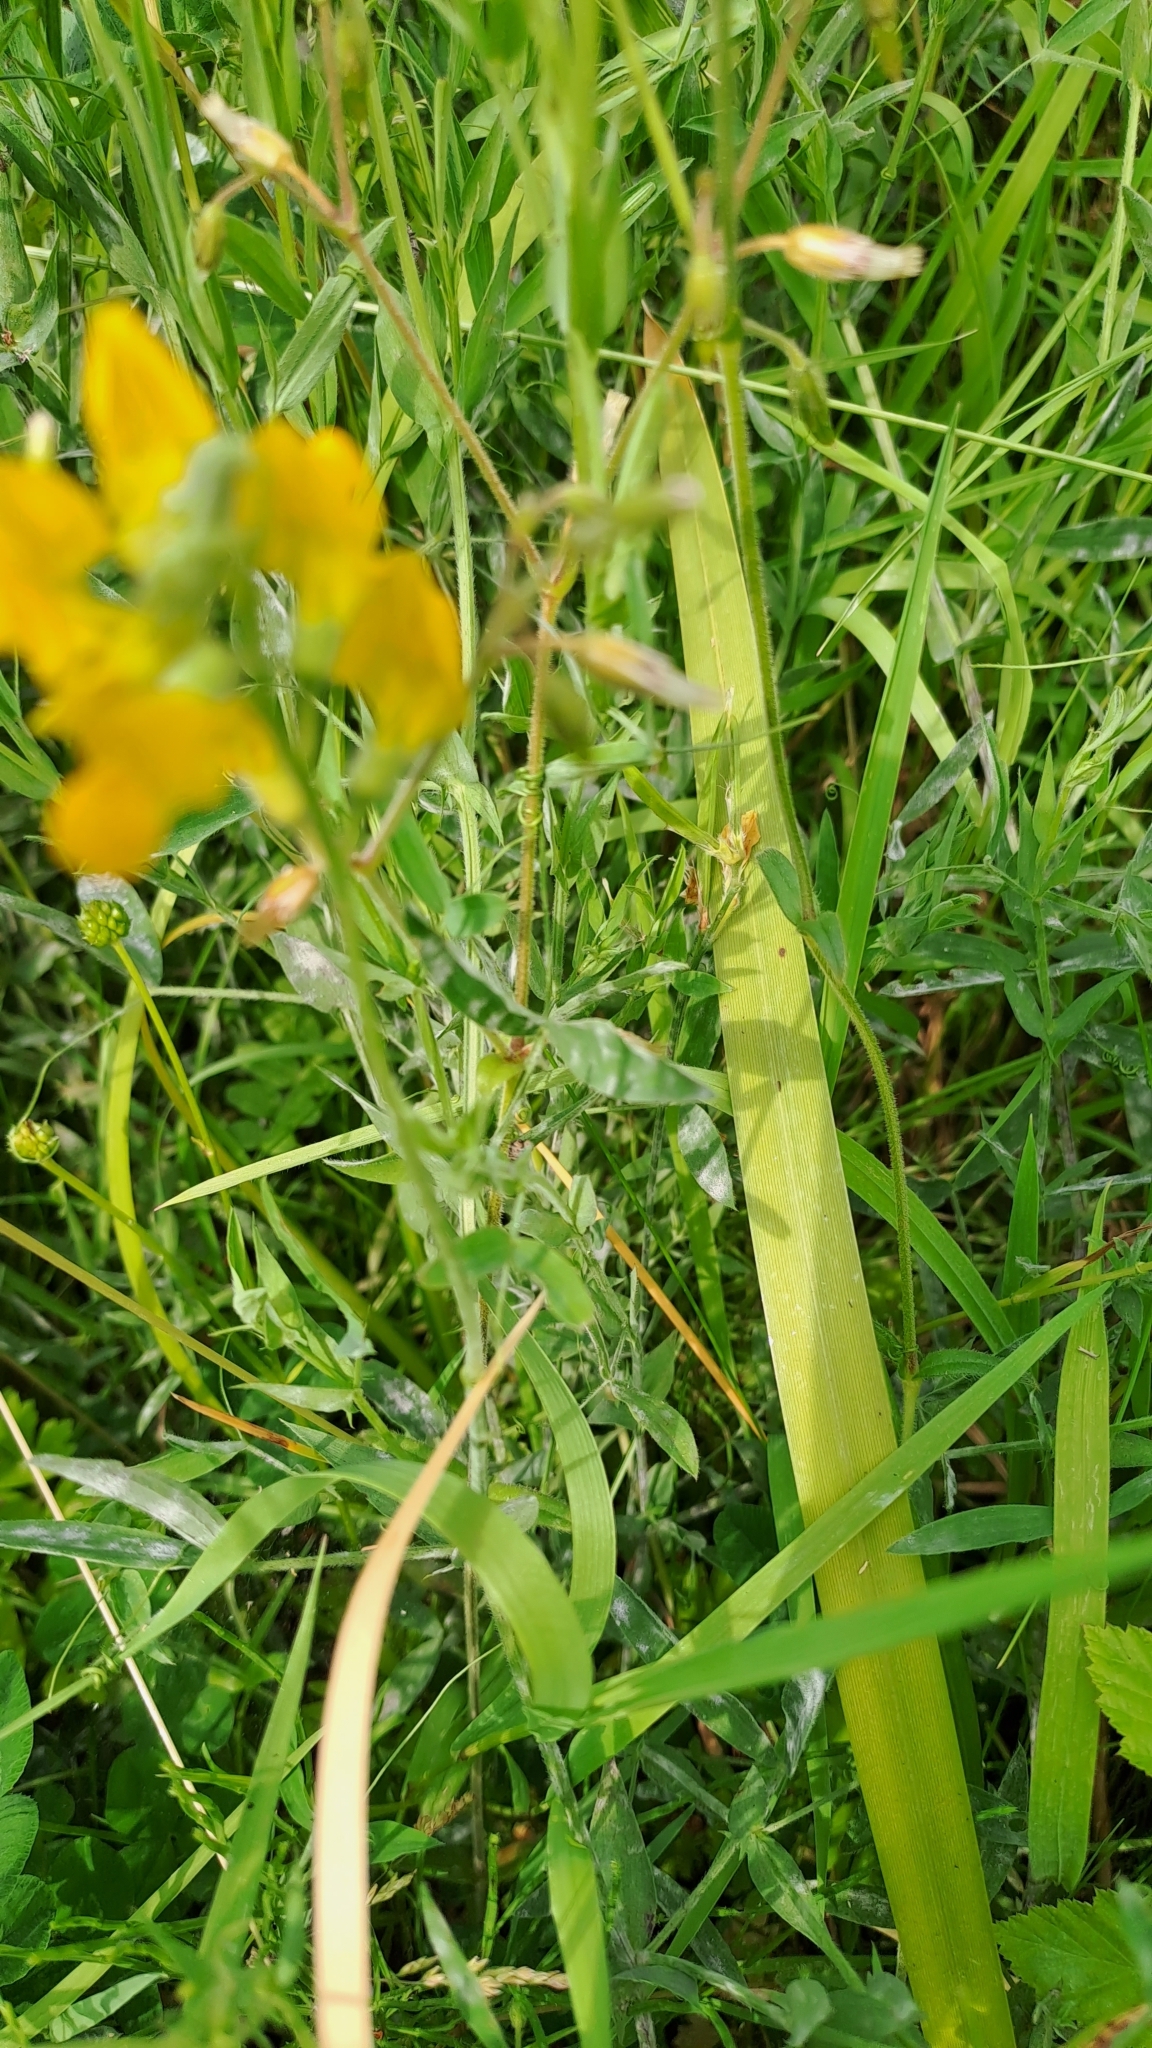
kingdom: Plantae
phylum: Tracheophyta
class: Magnoliopsida
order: Fabales
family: Fabaceae
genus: Lathyrus
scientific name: Lathyrus pratensis
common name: Meadow vetchling
